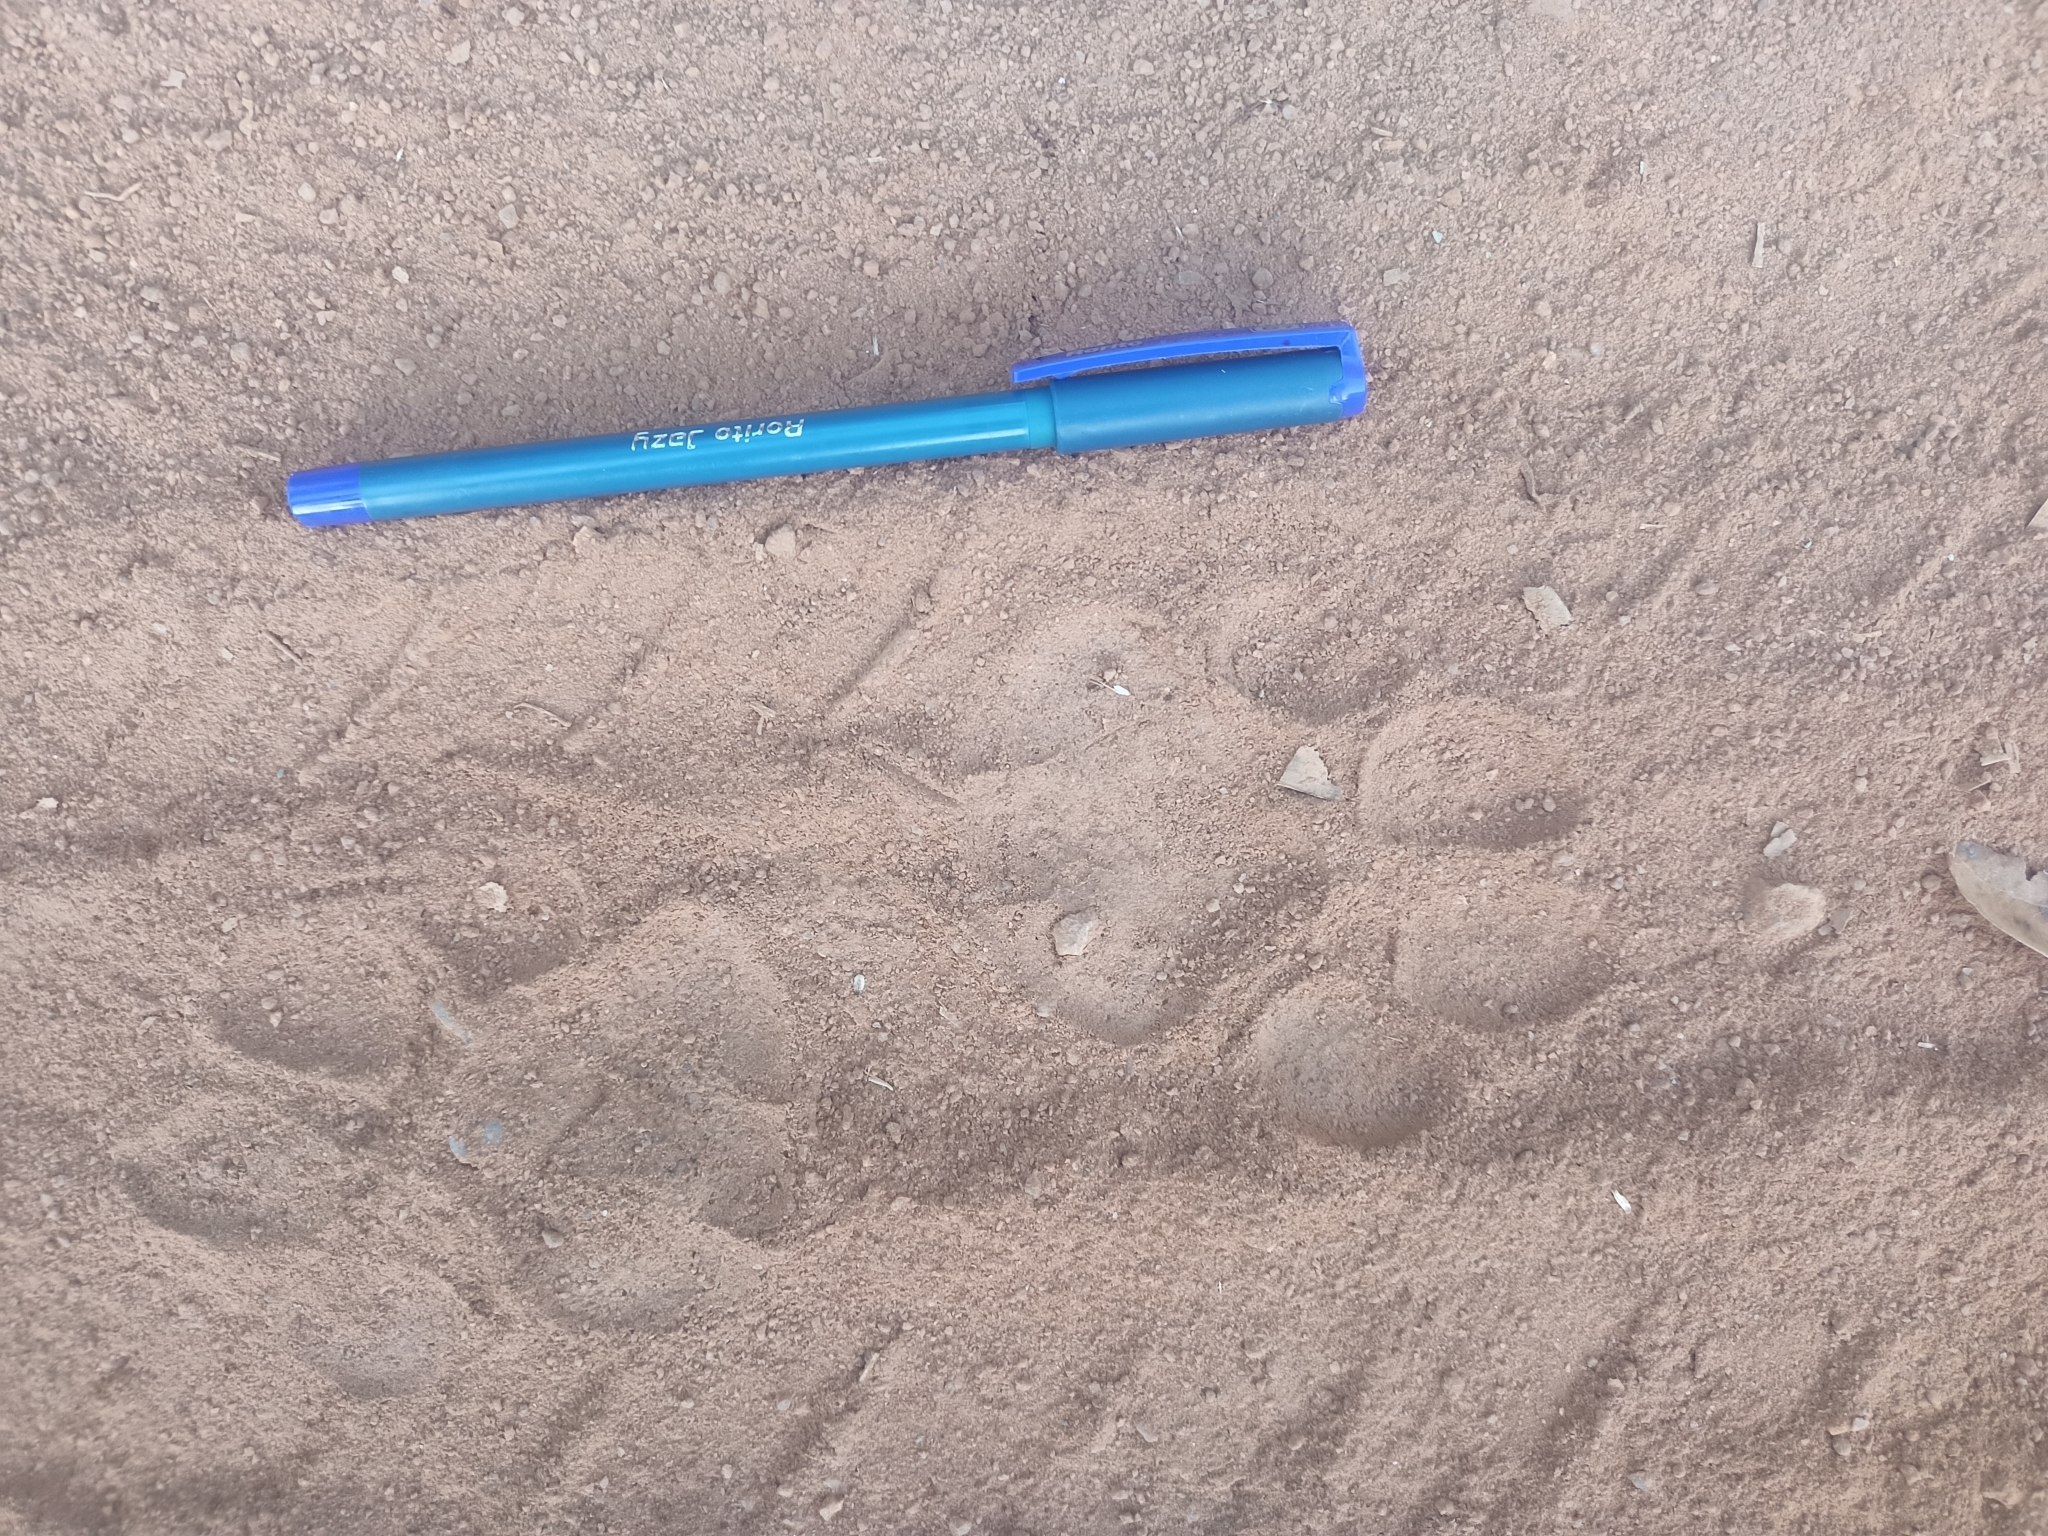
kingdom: Animalia
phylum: Chordata
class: Mammalia
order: Carnivora
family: Felidae
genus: Panthera
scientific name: Panthera pardus
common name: Leopard
